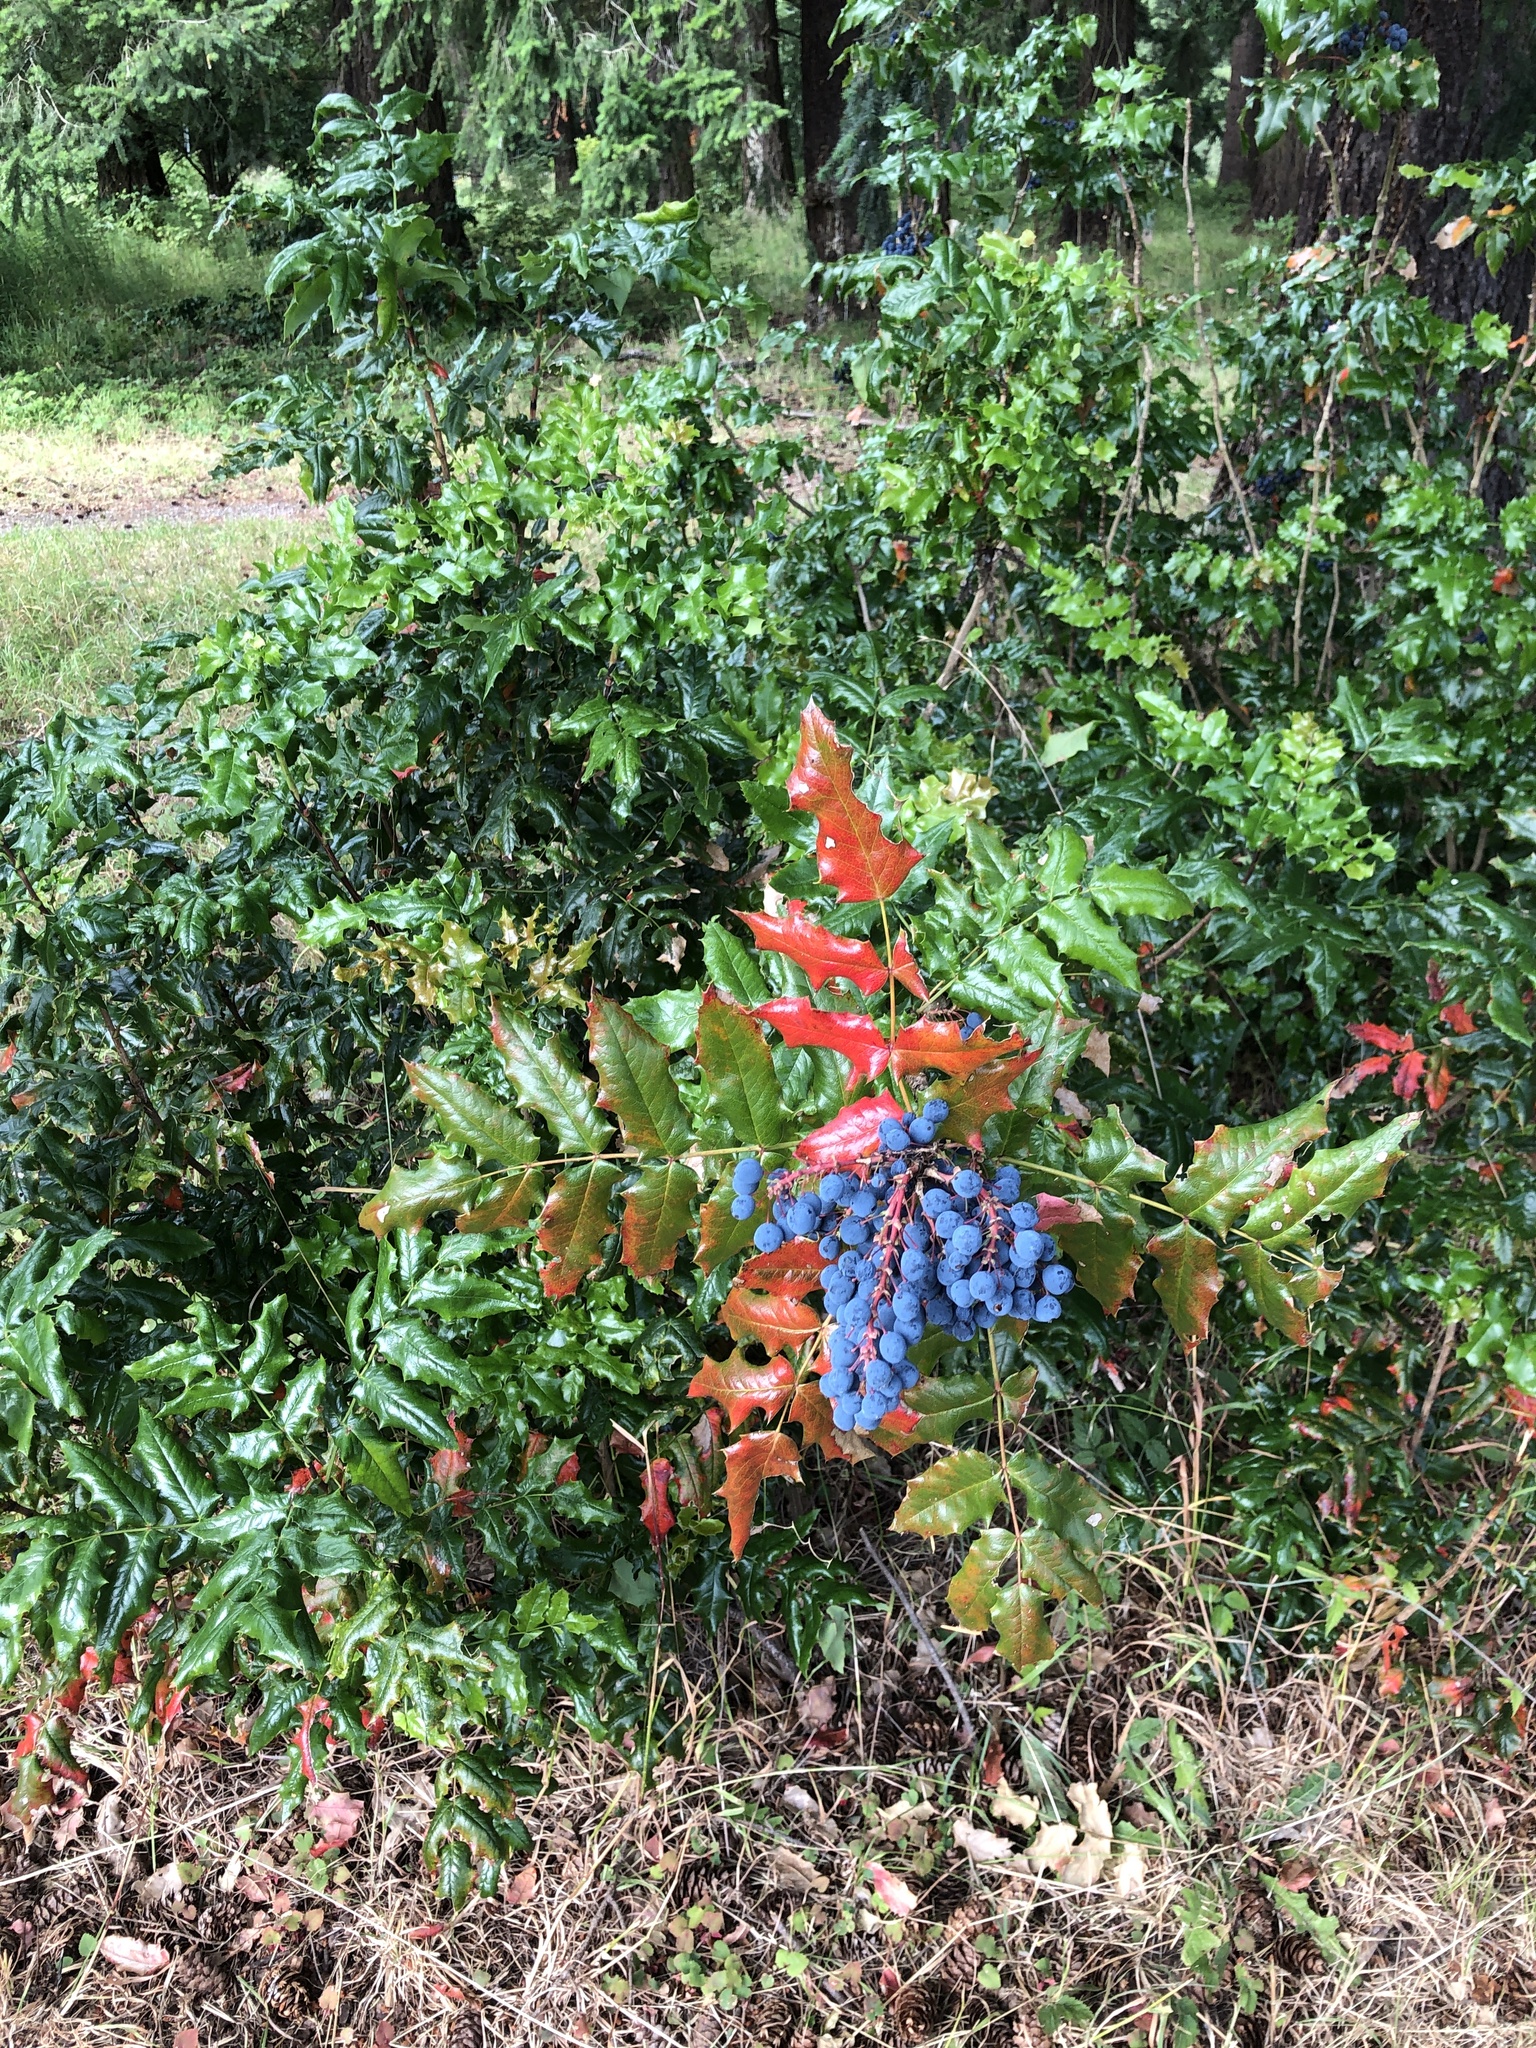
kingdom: Plantae
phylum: Tracheophyta
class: Magnoliopsida
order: Ranunculales
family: Berberidaceae
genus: Mahonia
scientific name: Mahonia aquifolium
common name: Oregon-grape
